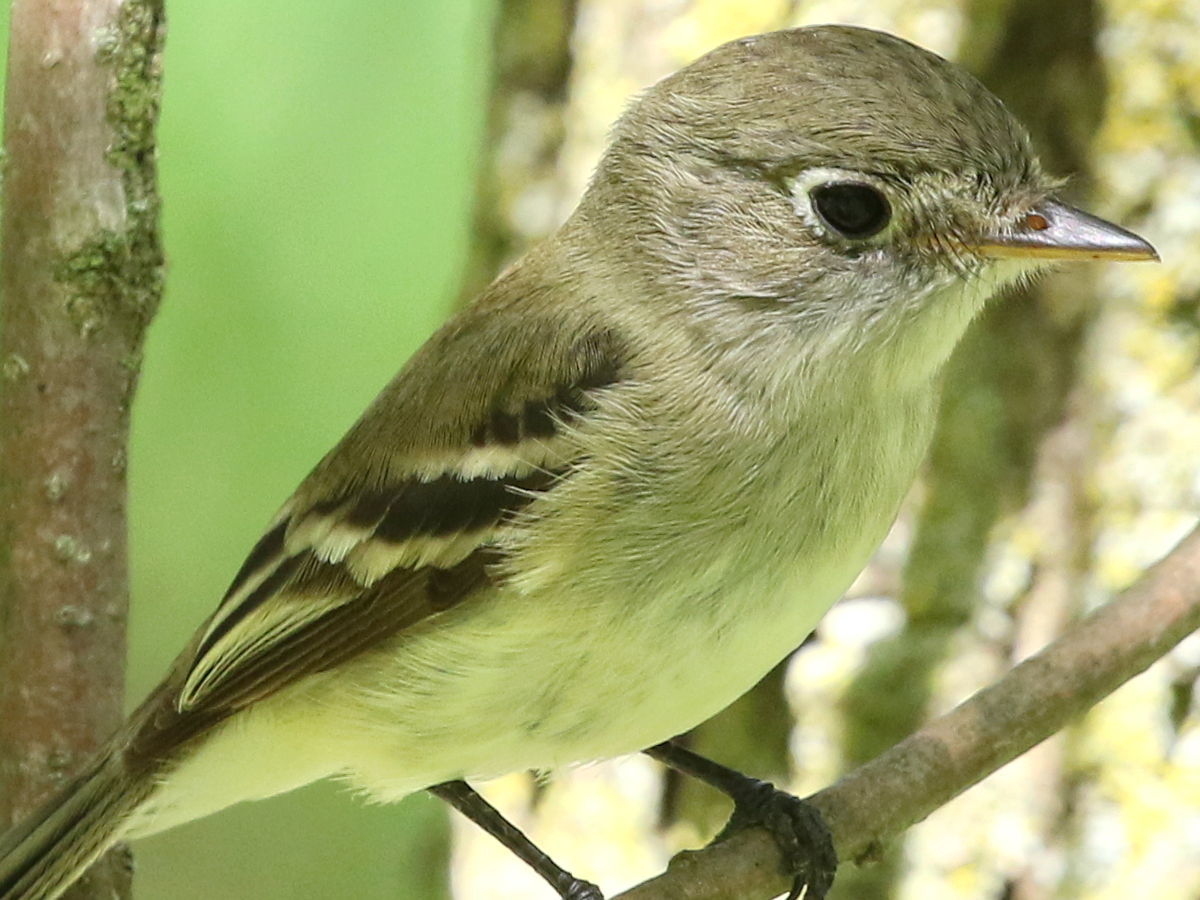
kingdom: Animalia
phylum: Chordata
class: Aves
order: Passeriformes
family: Tyrannidae
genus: Empidonax
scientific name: Empidonax flaviventris
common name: Yellow-bellied flycatcher
